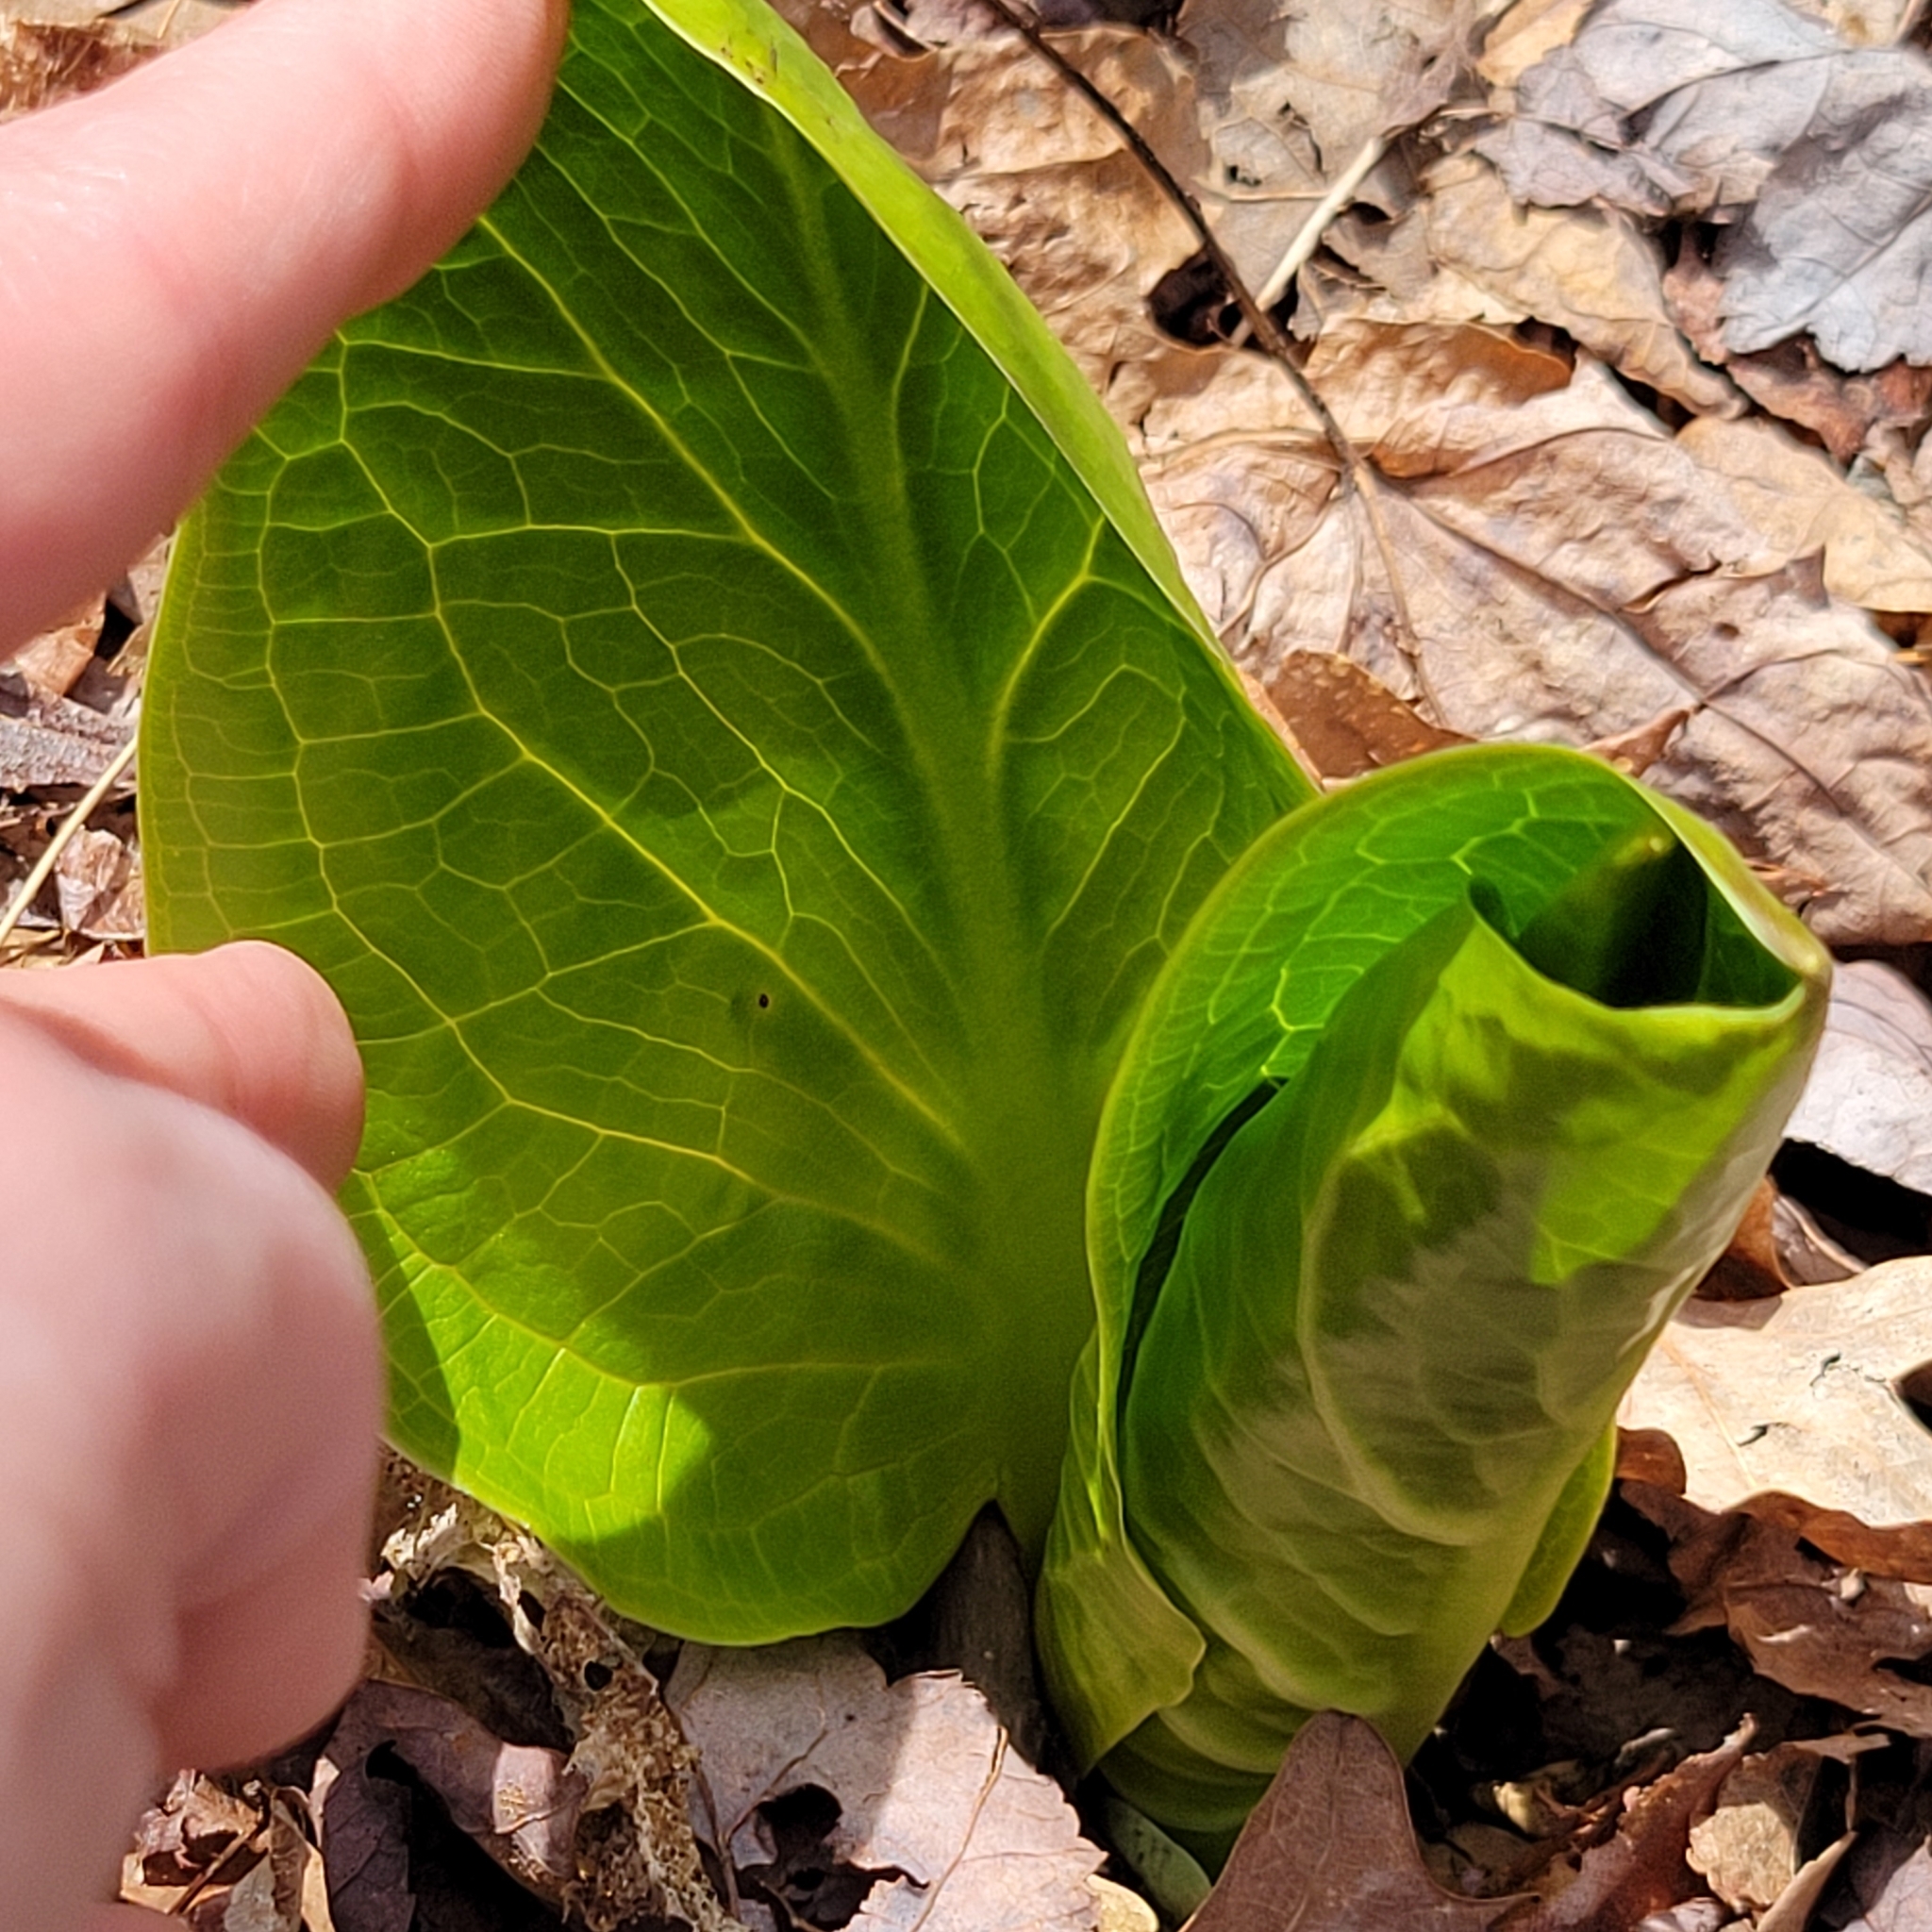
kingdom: Plantae
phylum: Tracheophyta
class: Liliopsida
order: Alismatales
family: Araceae
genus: Symplocarpus
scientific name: Symplocarpus foetidus
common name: Eastern skunk cabbage
